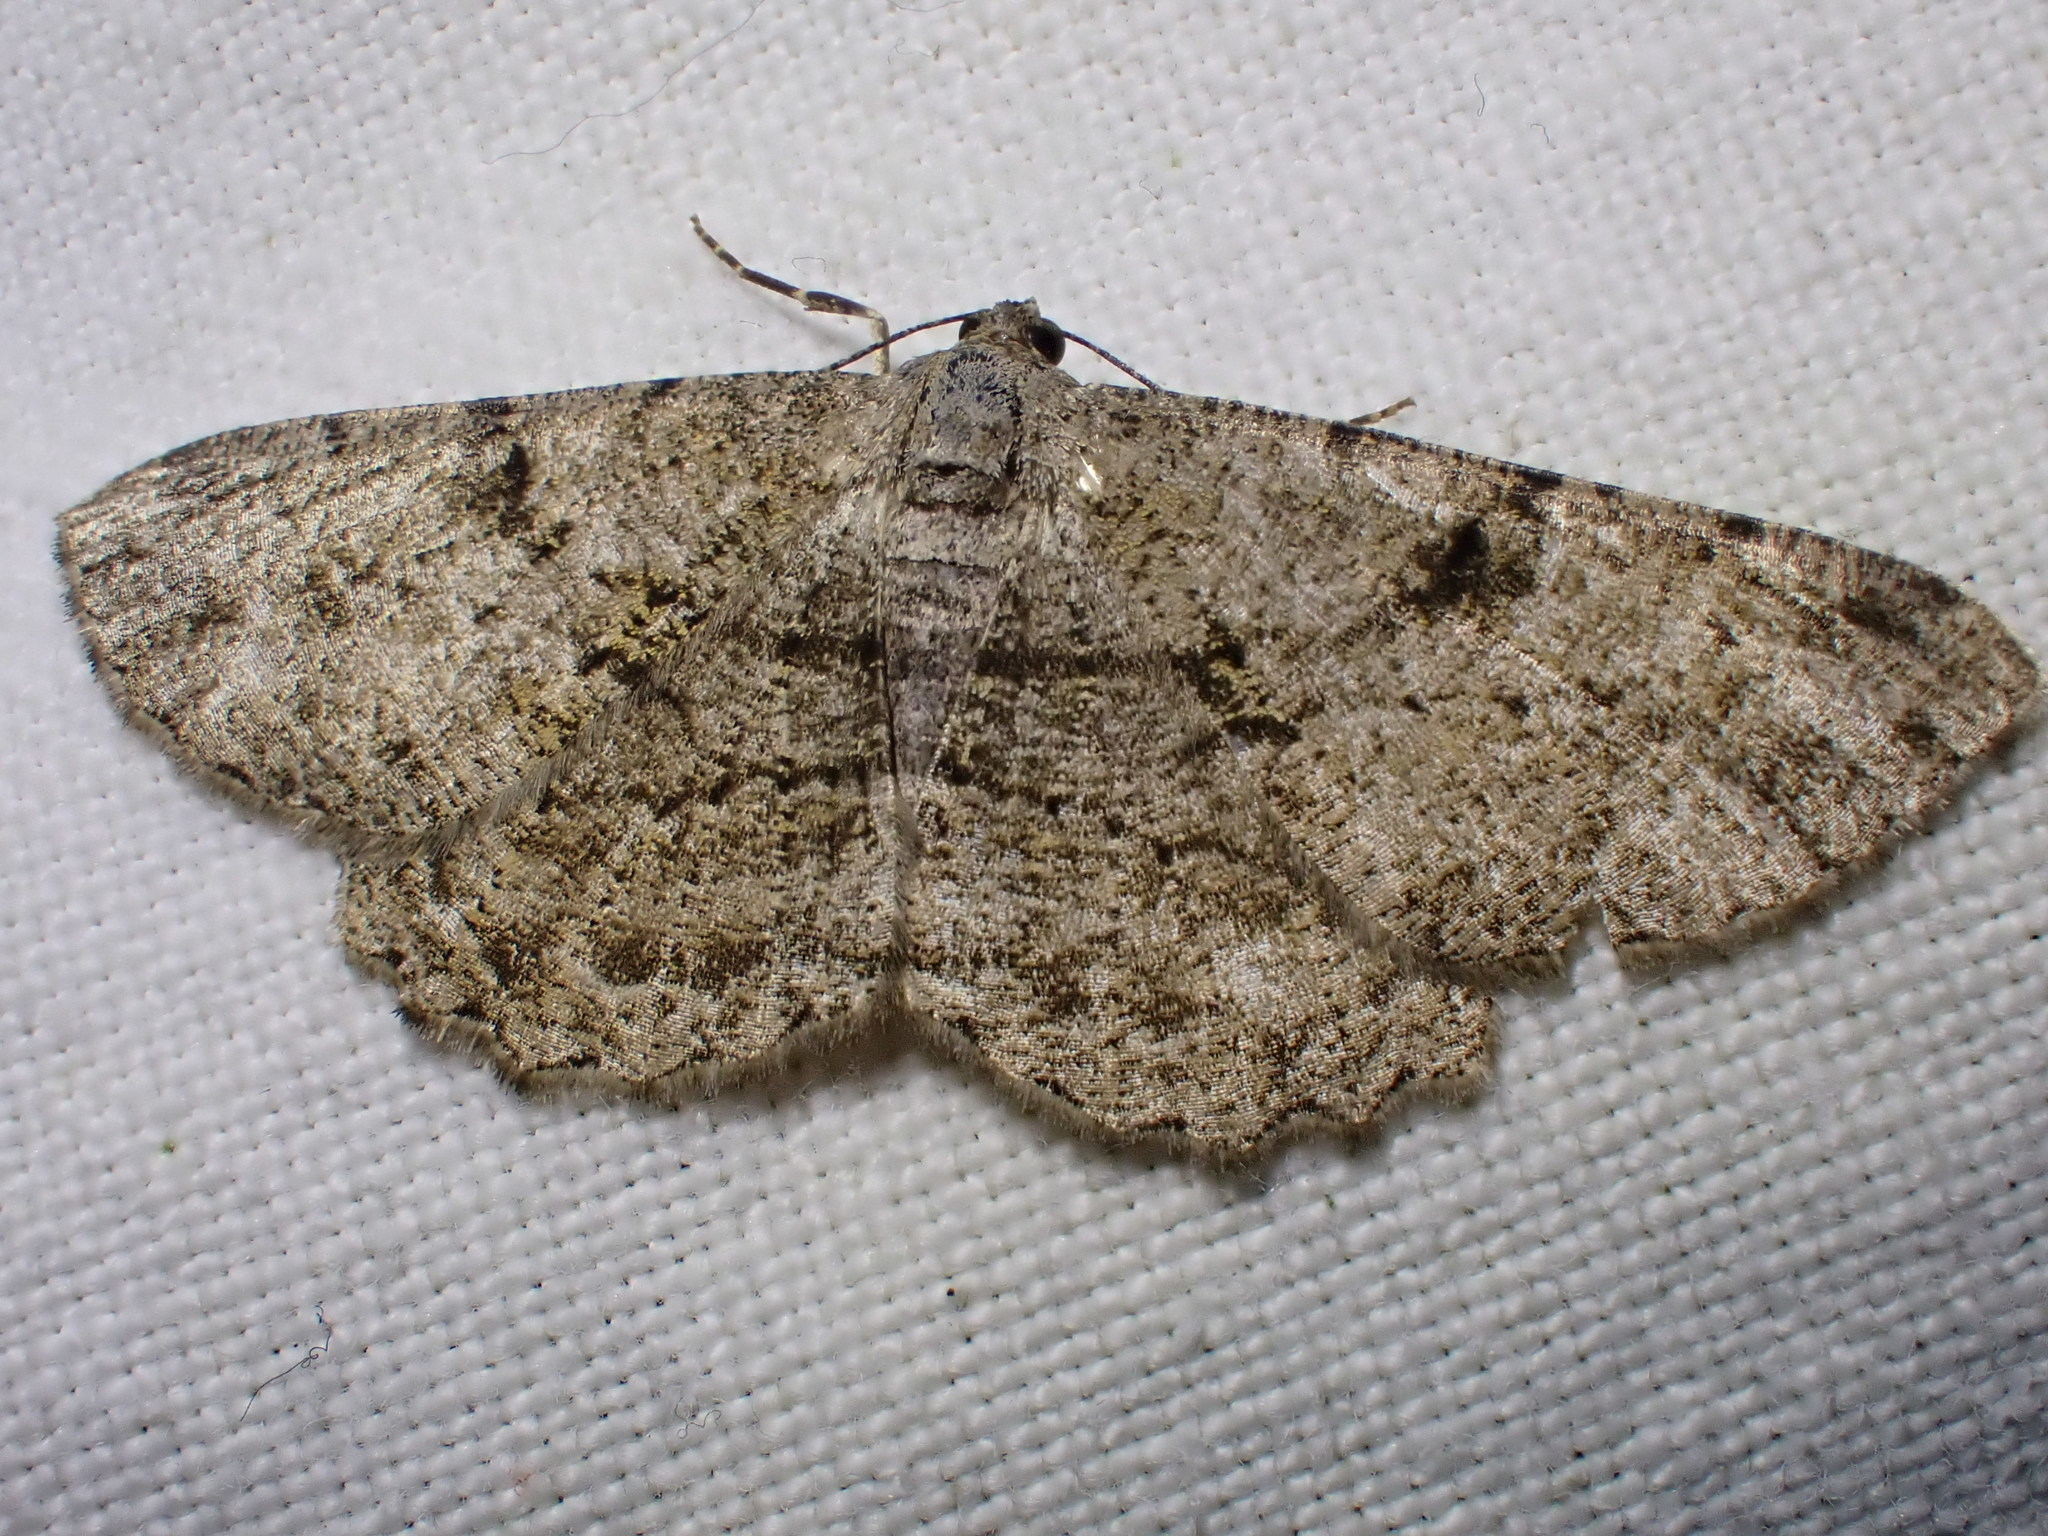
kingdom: Animalia
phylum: Arthropoda
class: Insecta
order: Lepidoptera
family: Geometridae
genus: Peribatodes
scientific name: Peribatodes rhomboidaria
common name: Willow beauty
